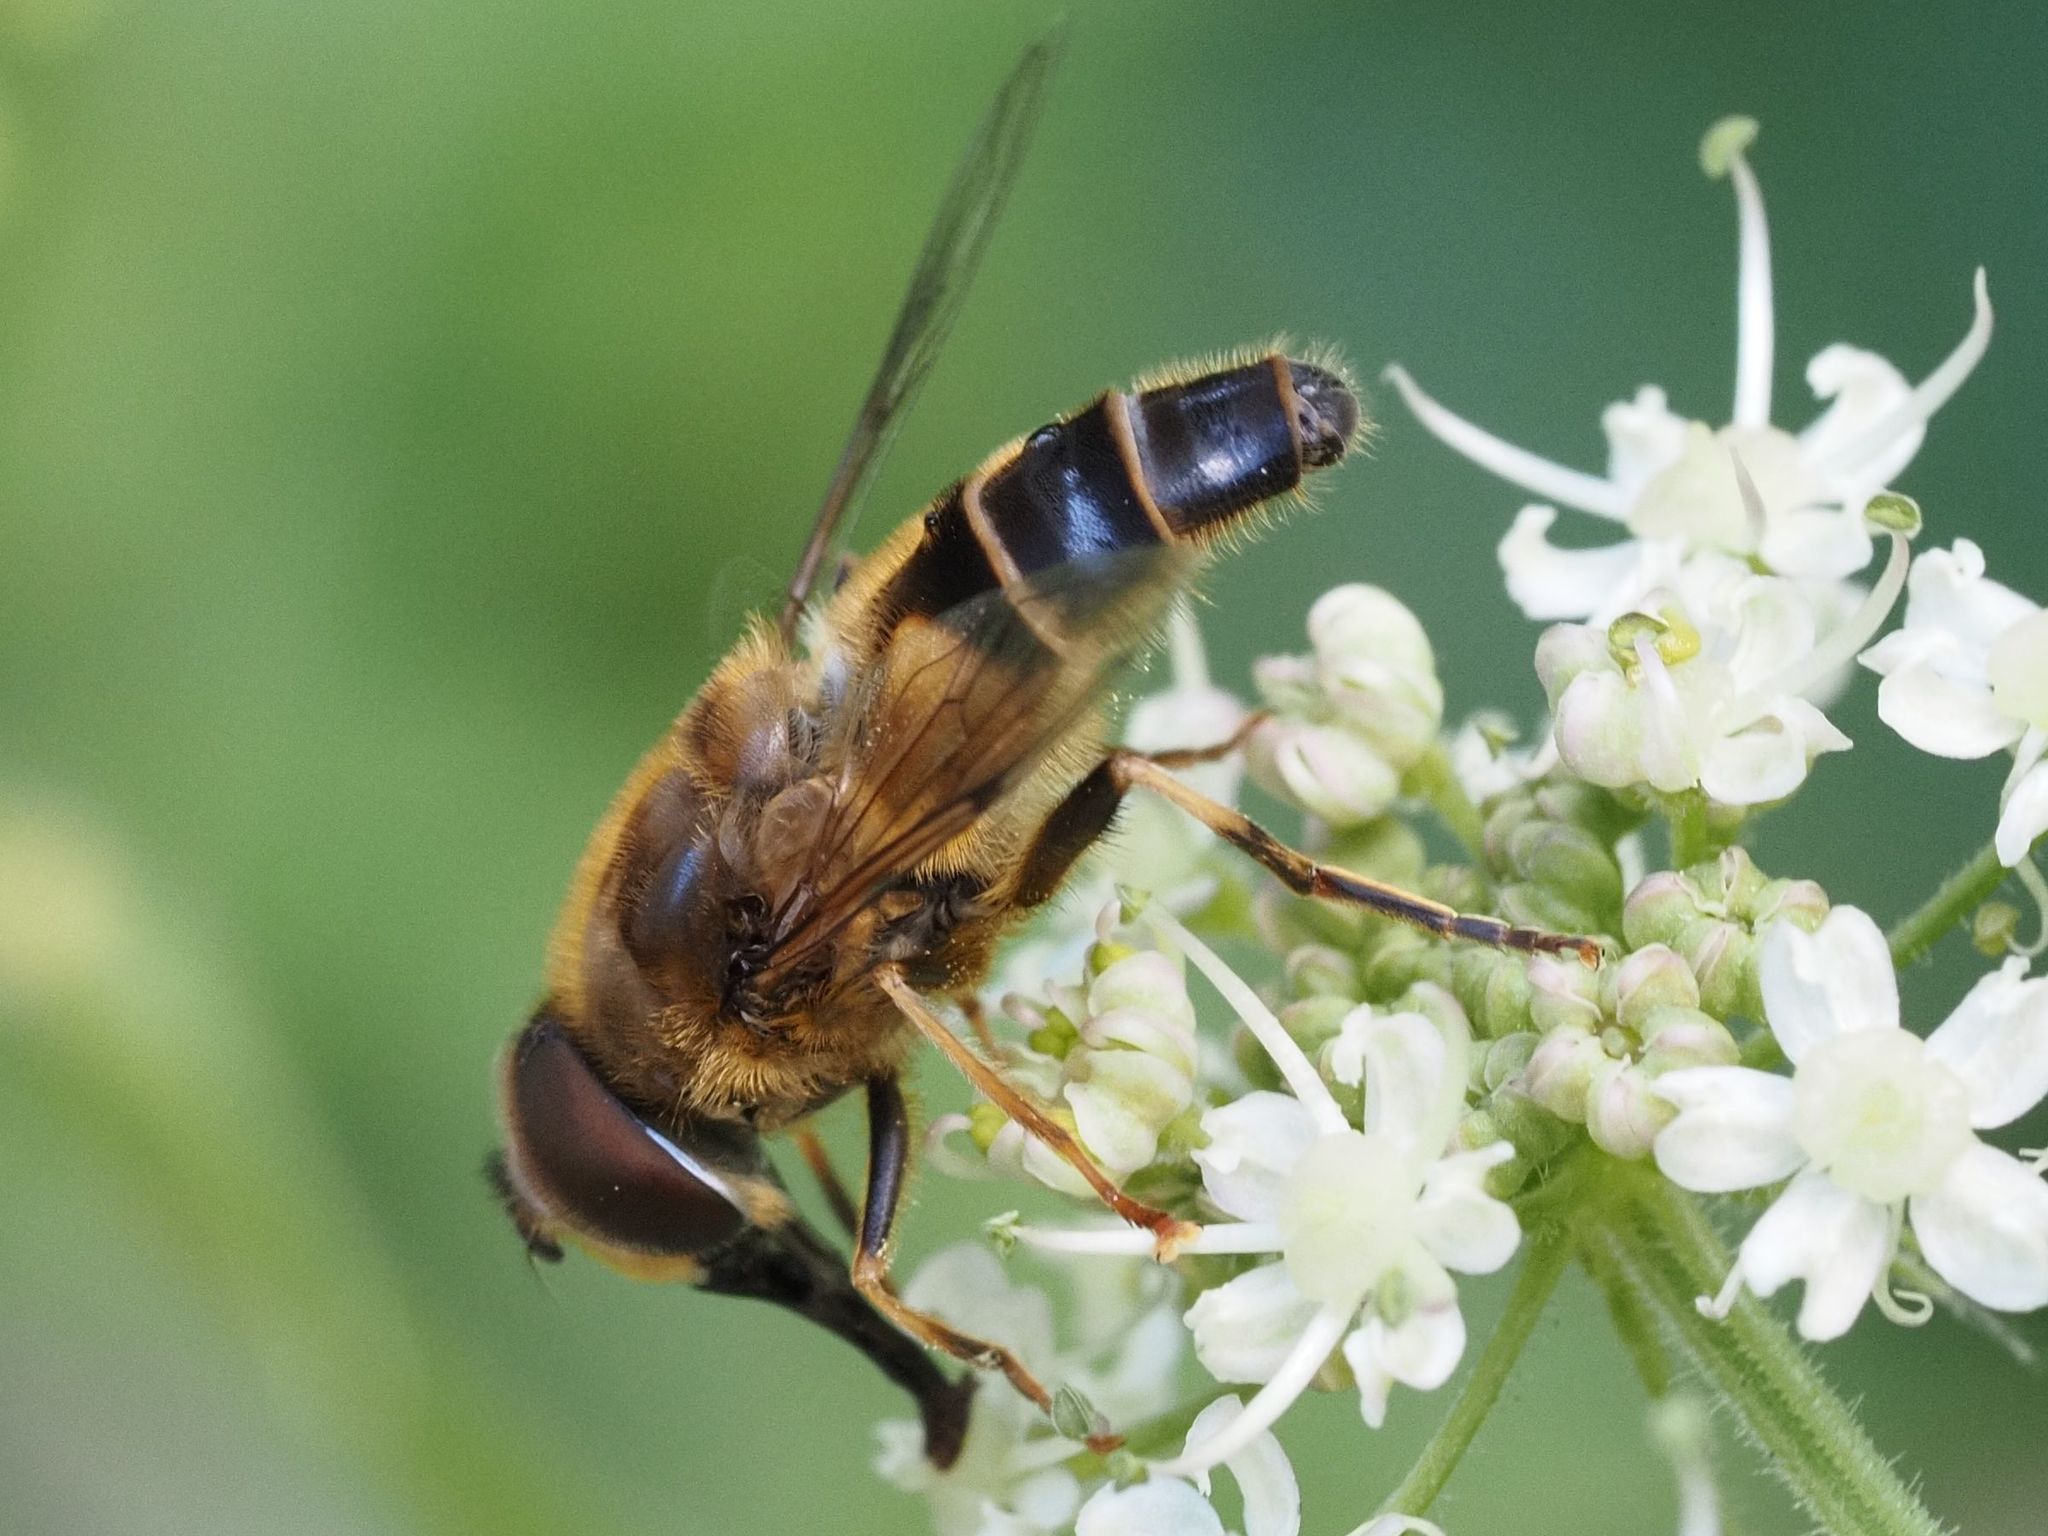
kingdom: Animalia
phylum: Arthropoda
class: Insecta
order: Diptera
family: Syrphidae
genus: Eristalis
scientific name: Eristalis pertinax
